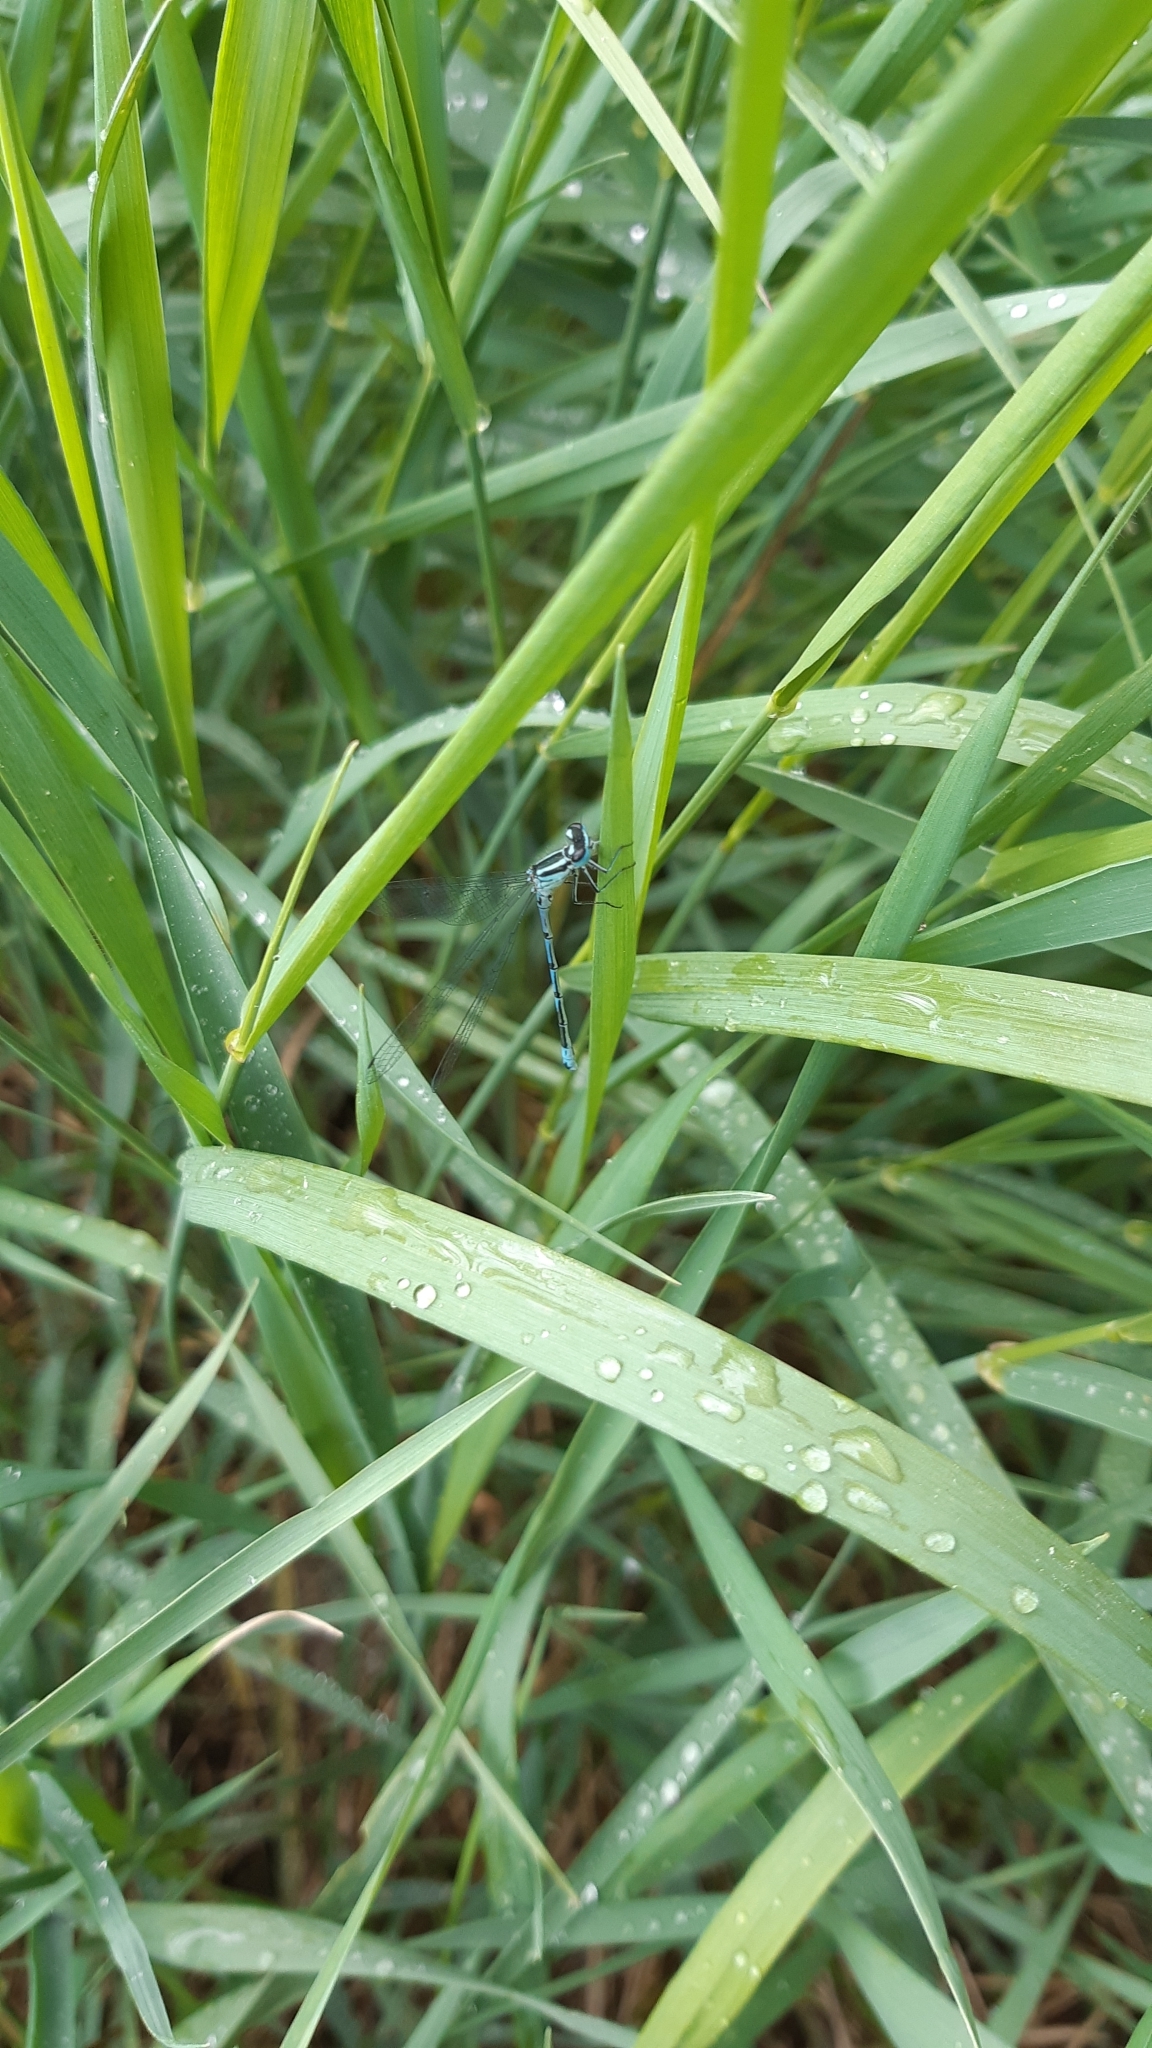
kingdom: Animalia
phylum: Arthropoda
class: Insecta
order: Odonata
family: Coenagrionidae
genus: Coenagrion
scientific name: Coenagrion puella
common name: Azure damselfly
